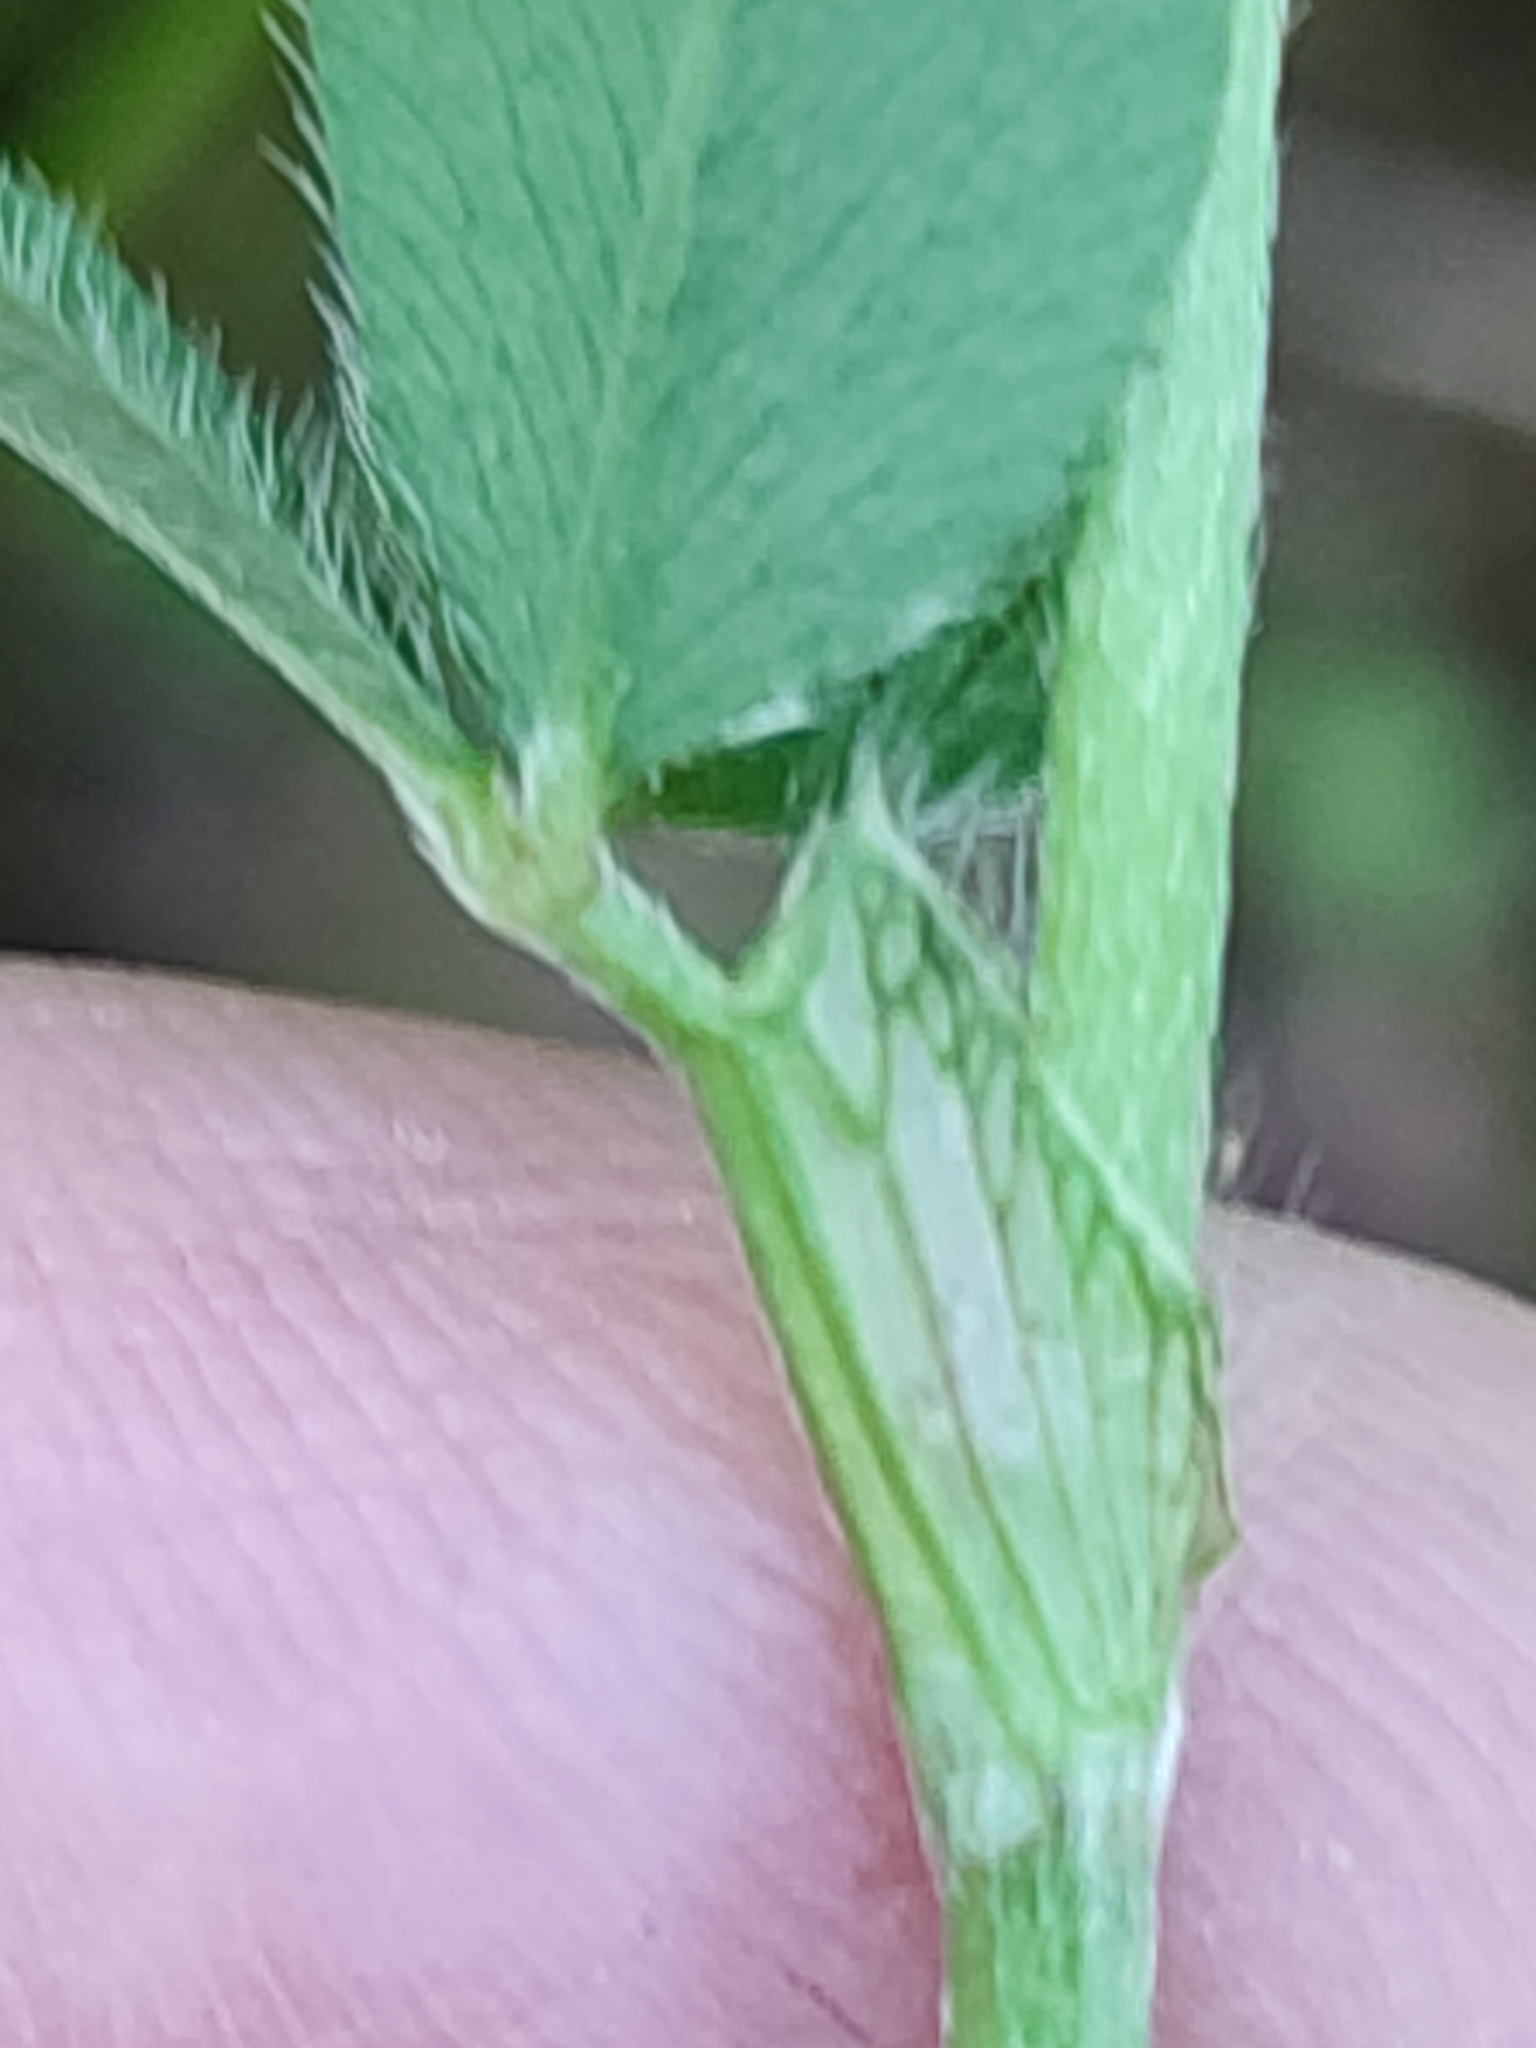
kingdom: Plantae
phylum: Tracheophyta
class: Magnoliopsida
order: Fabales
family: Fabaceae
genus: Trifolium
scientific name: Trifolium pratense
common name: Red clover
